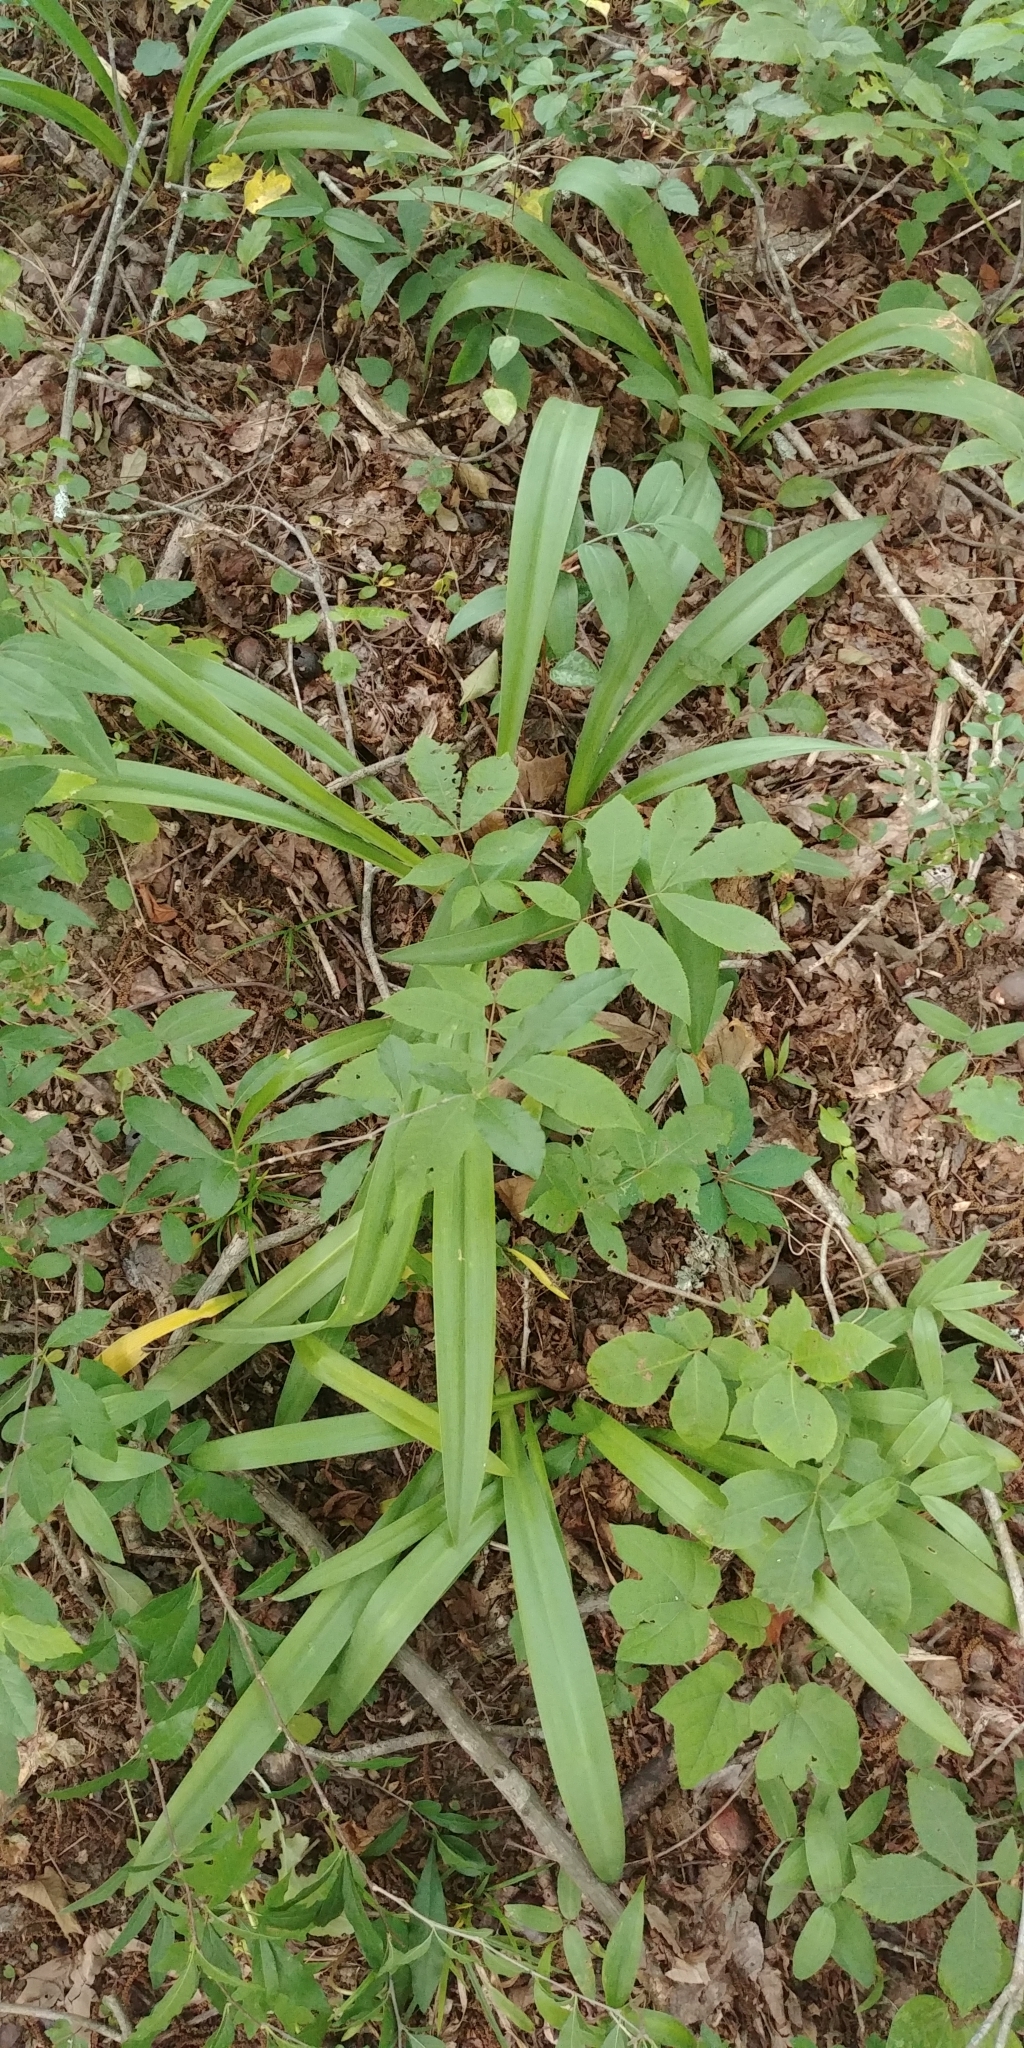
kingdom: Plantae
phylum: Tracheophyta
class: Liliopsida
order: Asparagales
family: Amaryllidaceae
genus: Hymenocallis
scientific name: Hymenocallis occidentalis
